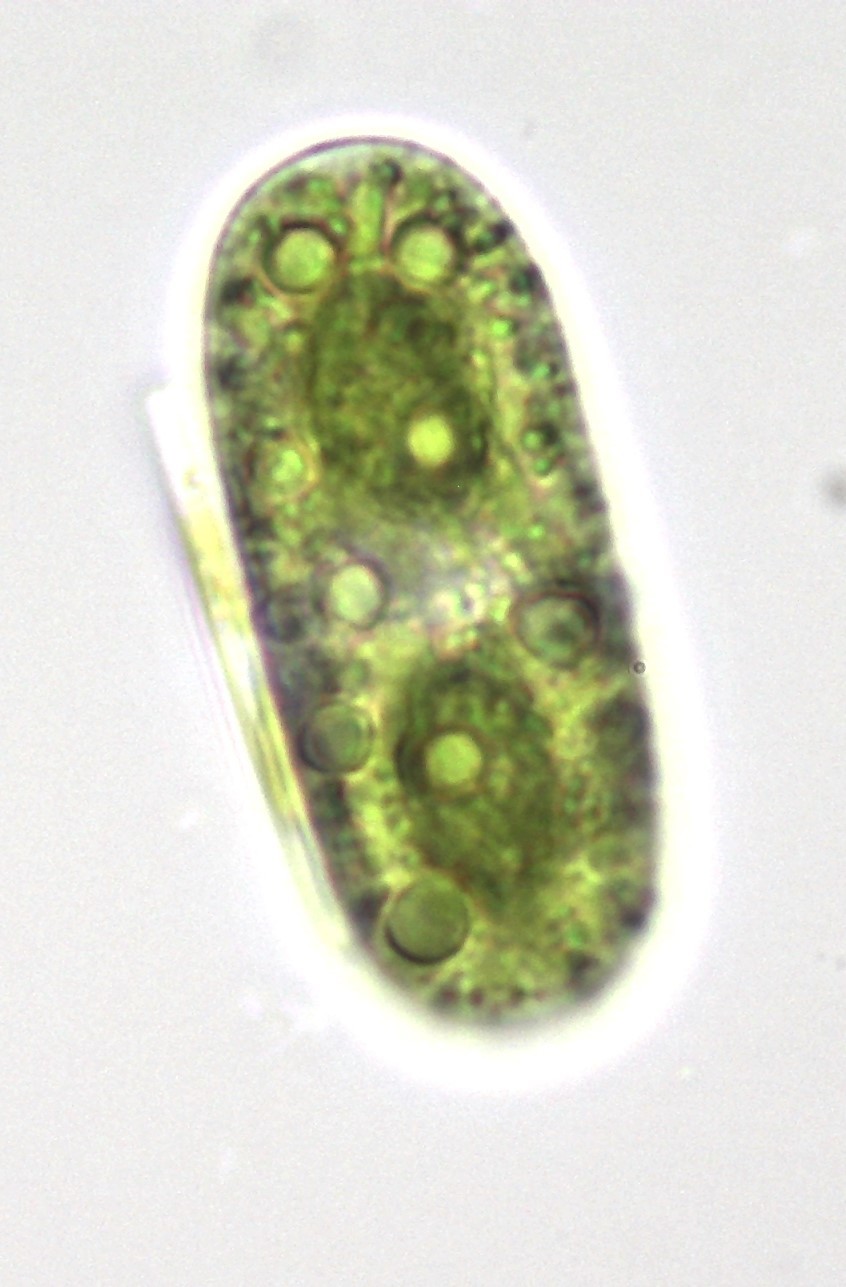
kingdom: Plantae
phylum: Charophyta
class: Zygnematophyceae
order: Zygnematales
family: Mesotaeniaceae
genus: Cylindrocystis
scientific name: Cylindrocystis brebissonii
